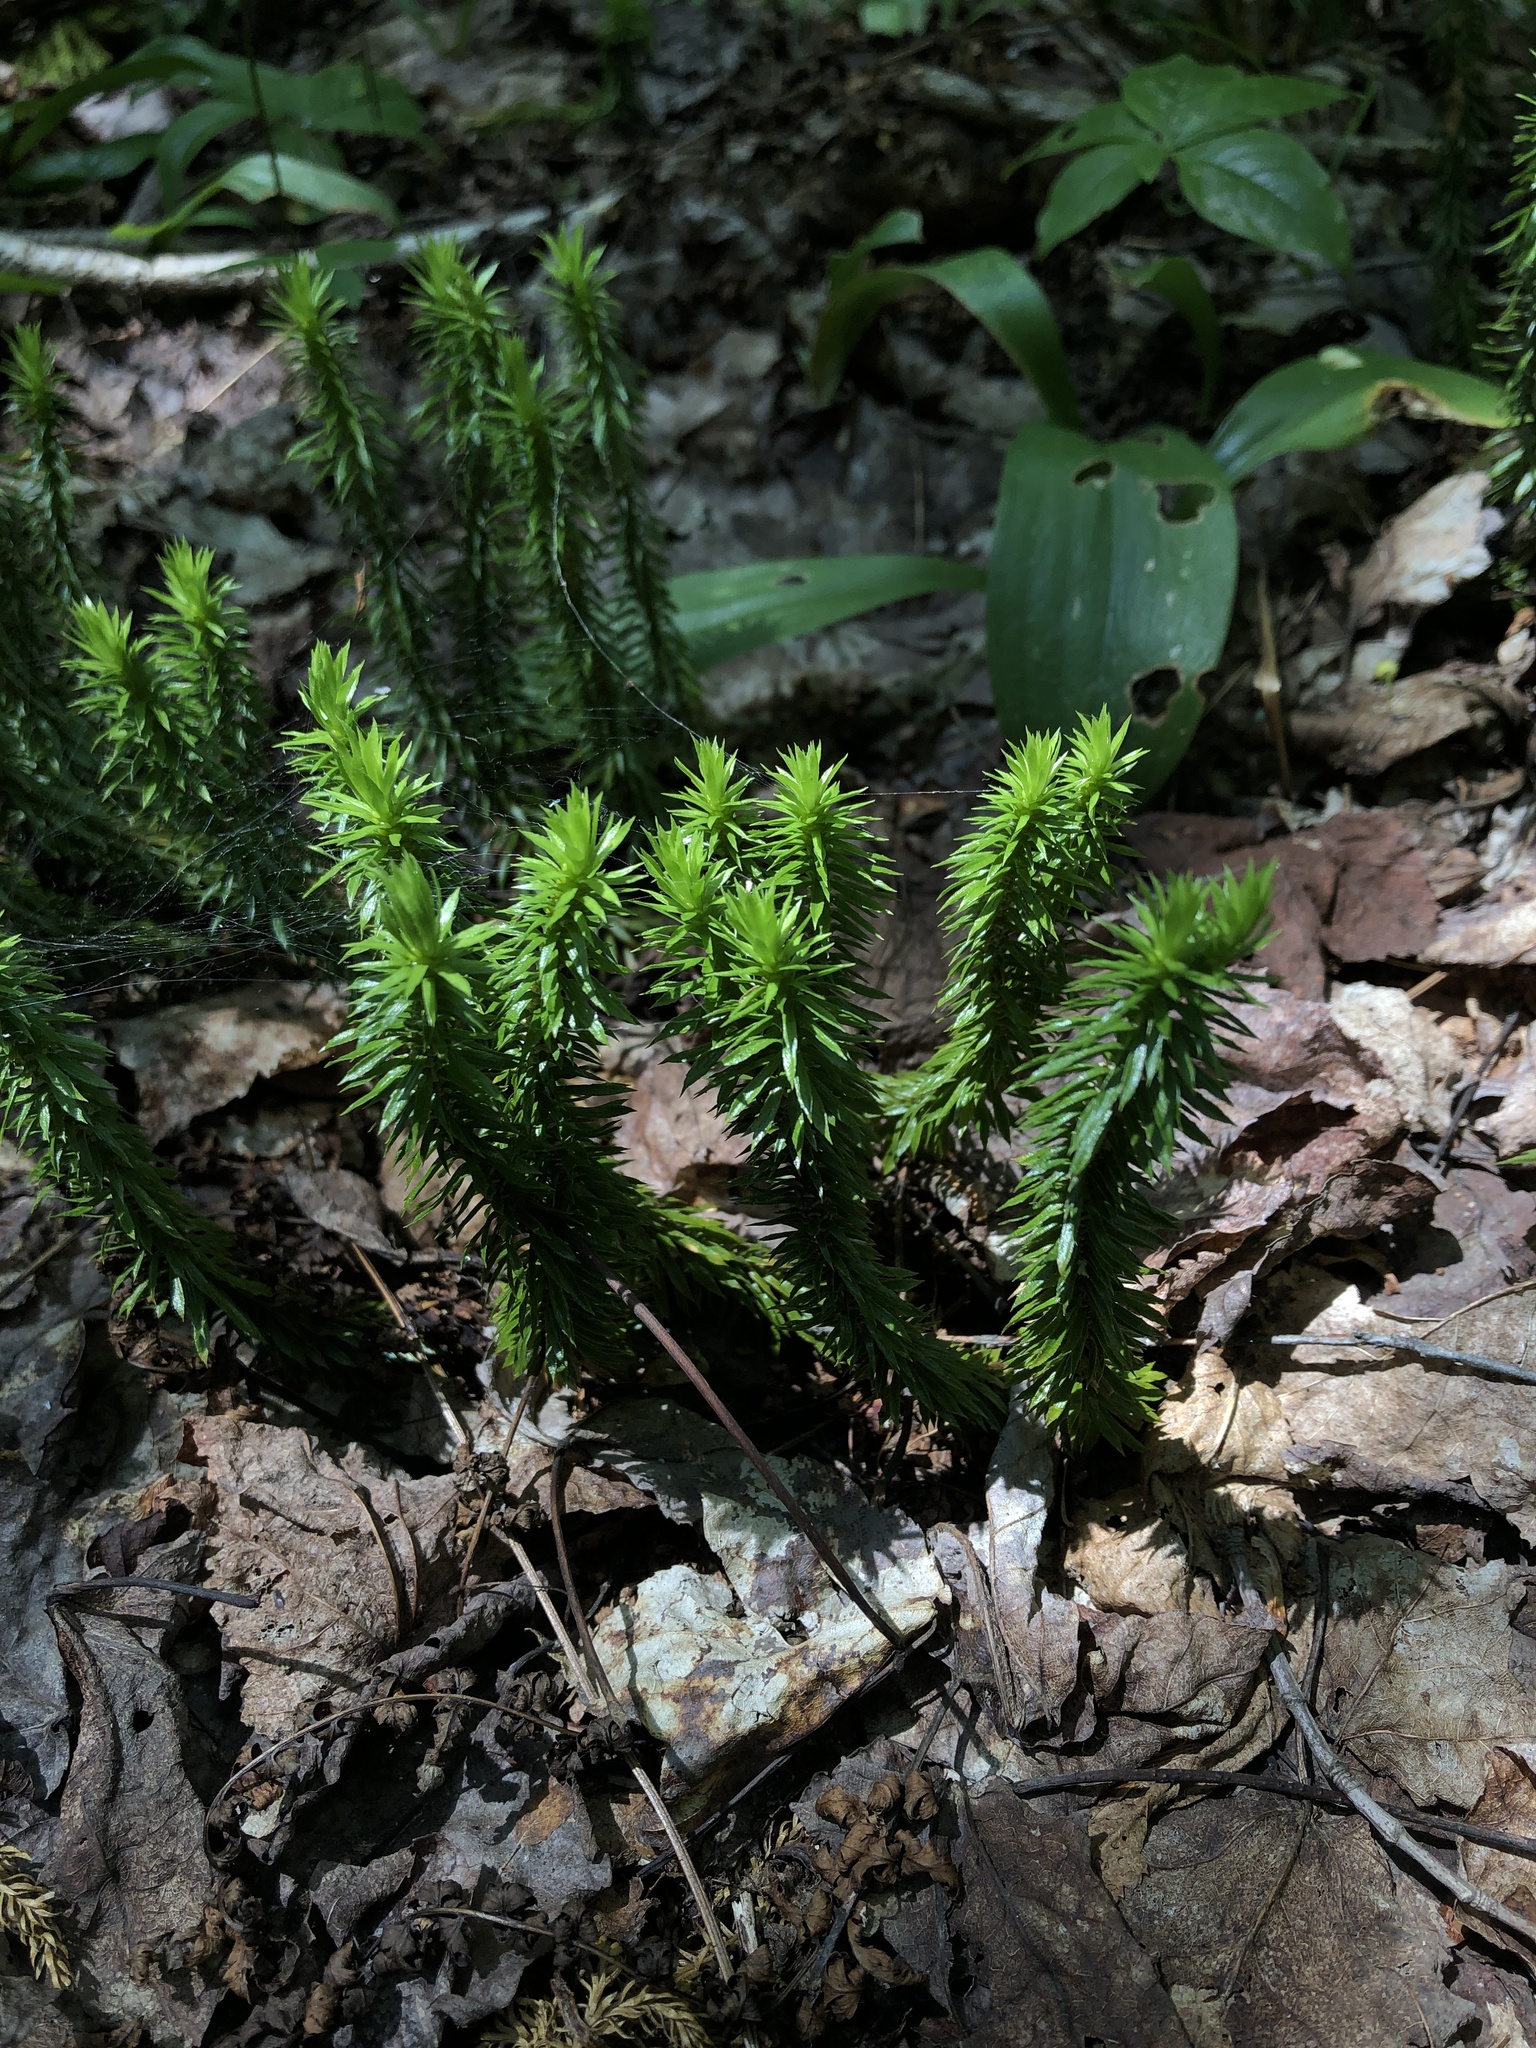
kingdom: Plantae
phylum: Tracheophyta
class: Lycopodiopsida
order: Lycopodiales
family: Lycopodiaceae
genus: Huperzia
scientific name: Huperzia lucidula
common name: Shining clubmoss
